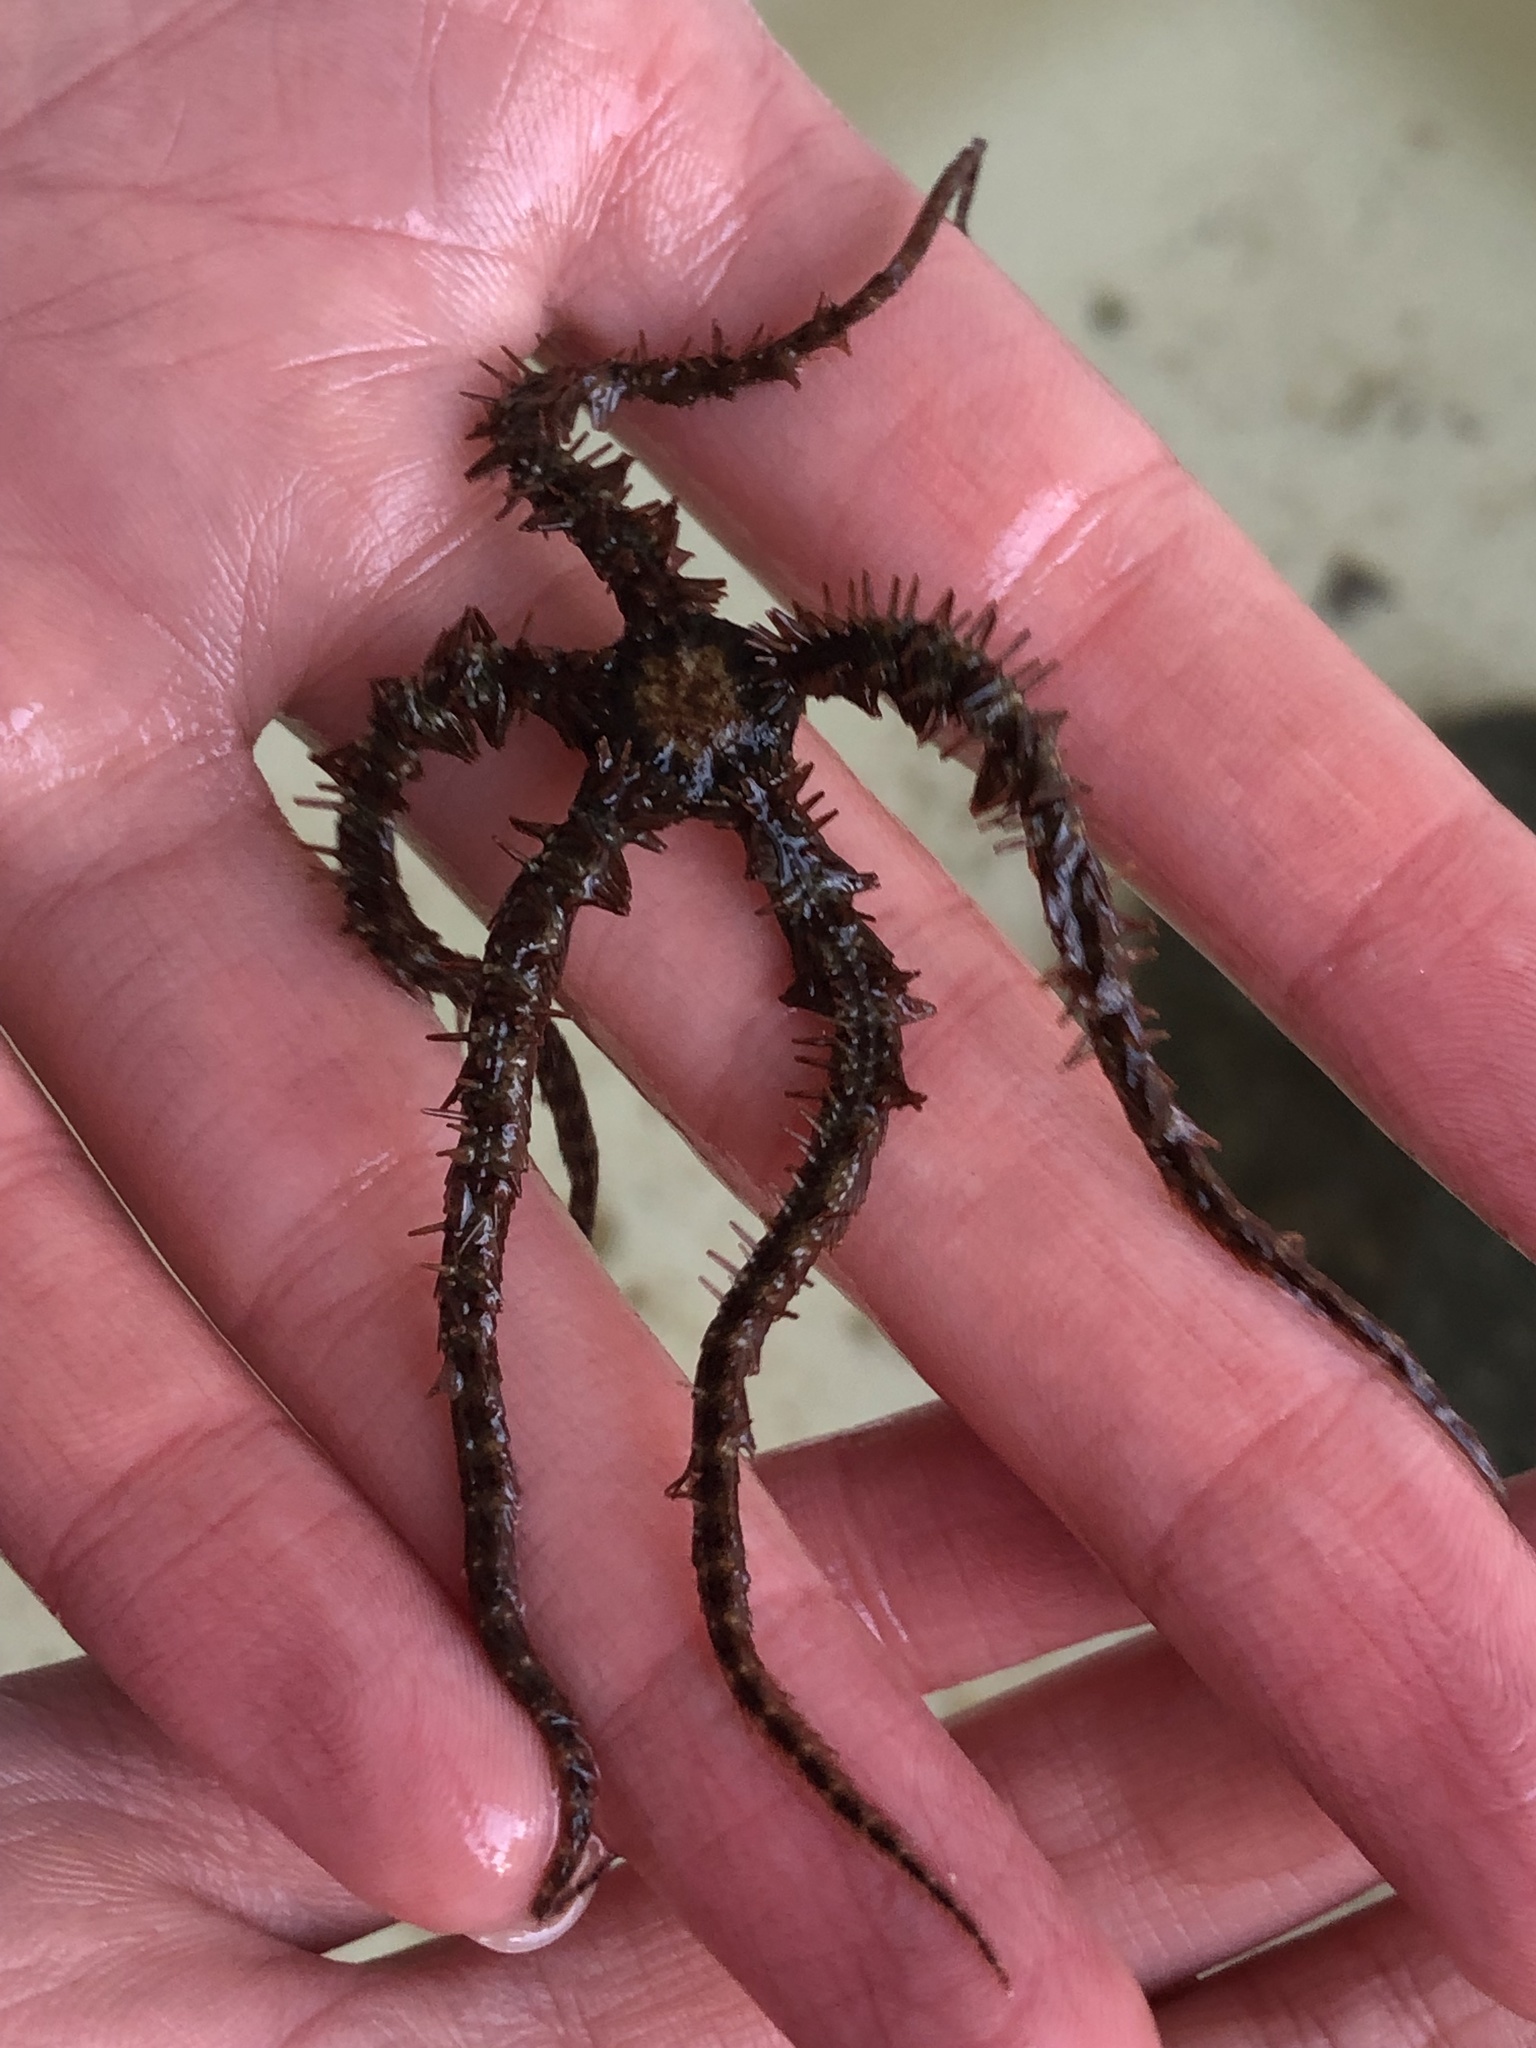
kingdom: Animalia
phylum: Echinodermata
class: Ophiuroidea
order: Amphilepidida
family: Ophiotrichidae
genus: Ophiothrix
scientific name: Ophiothrix fragilis
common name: Common brittlestar
